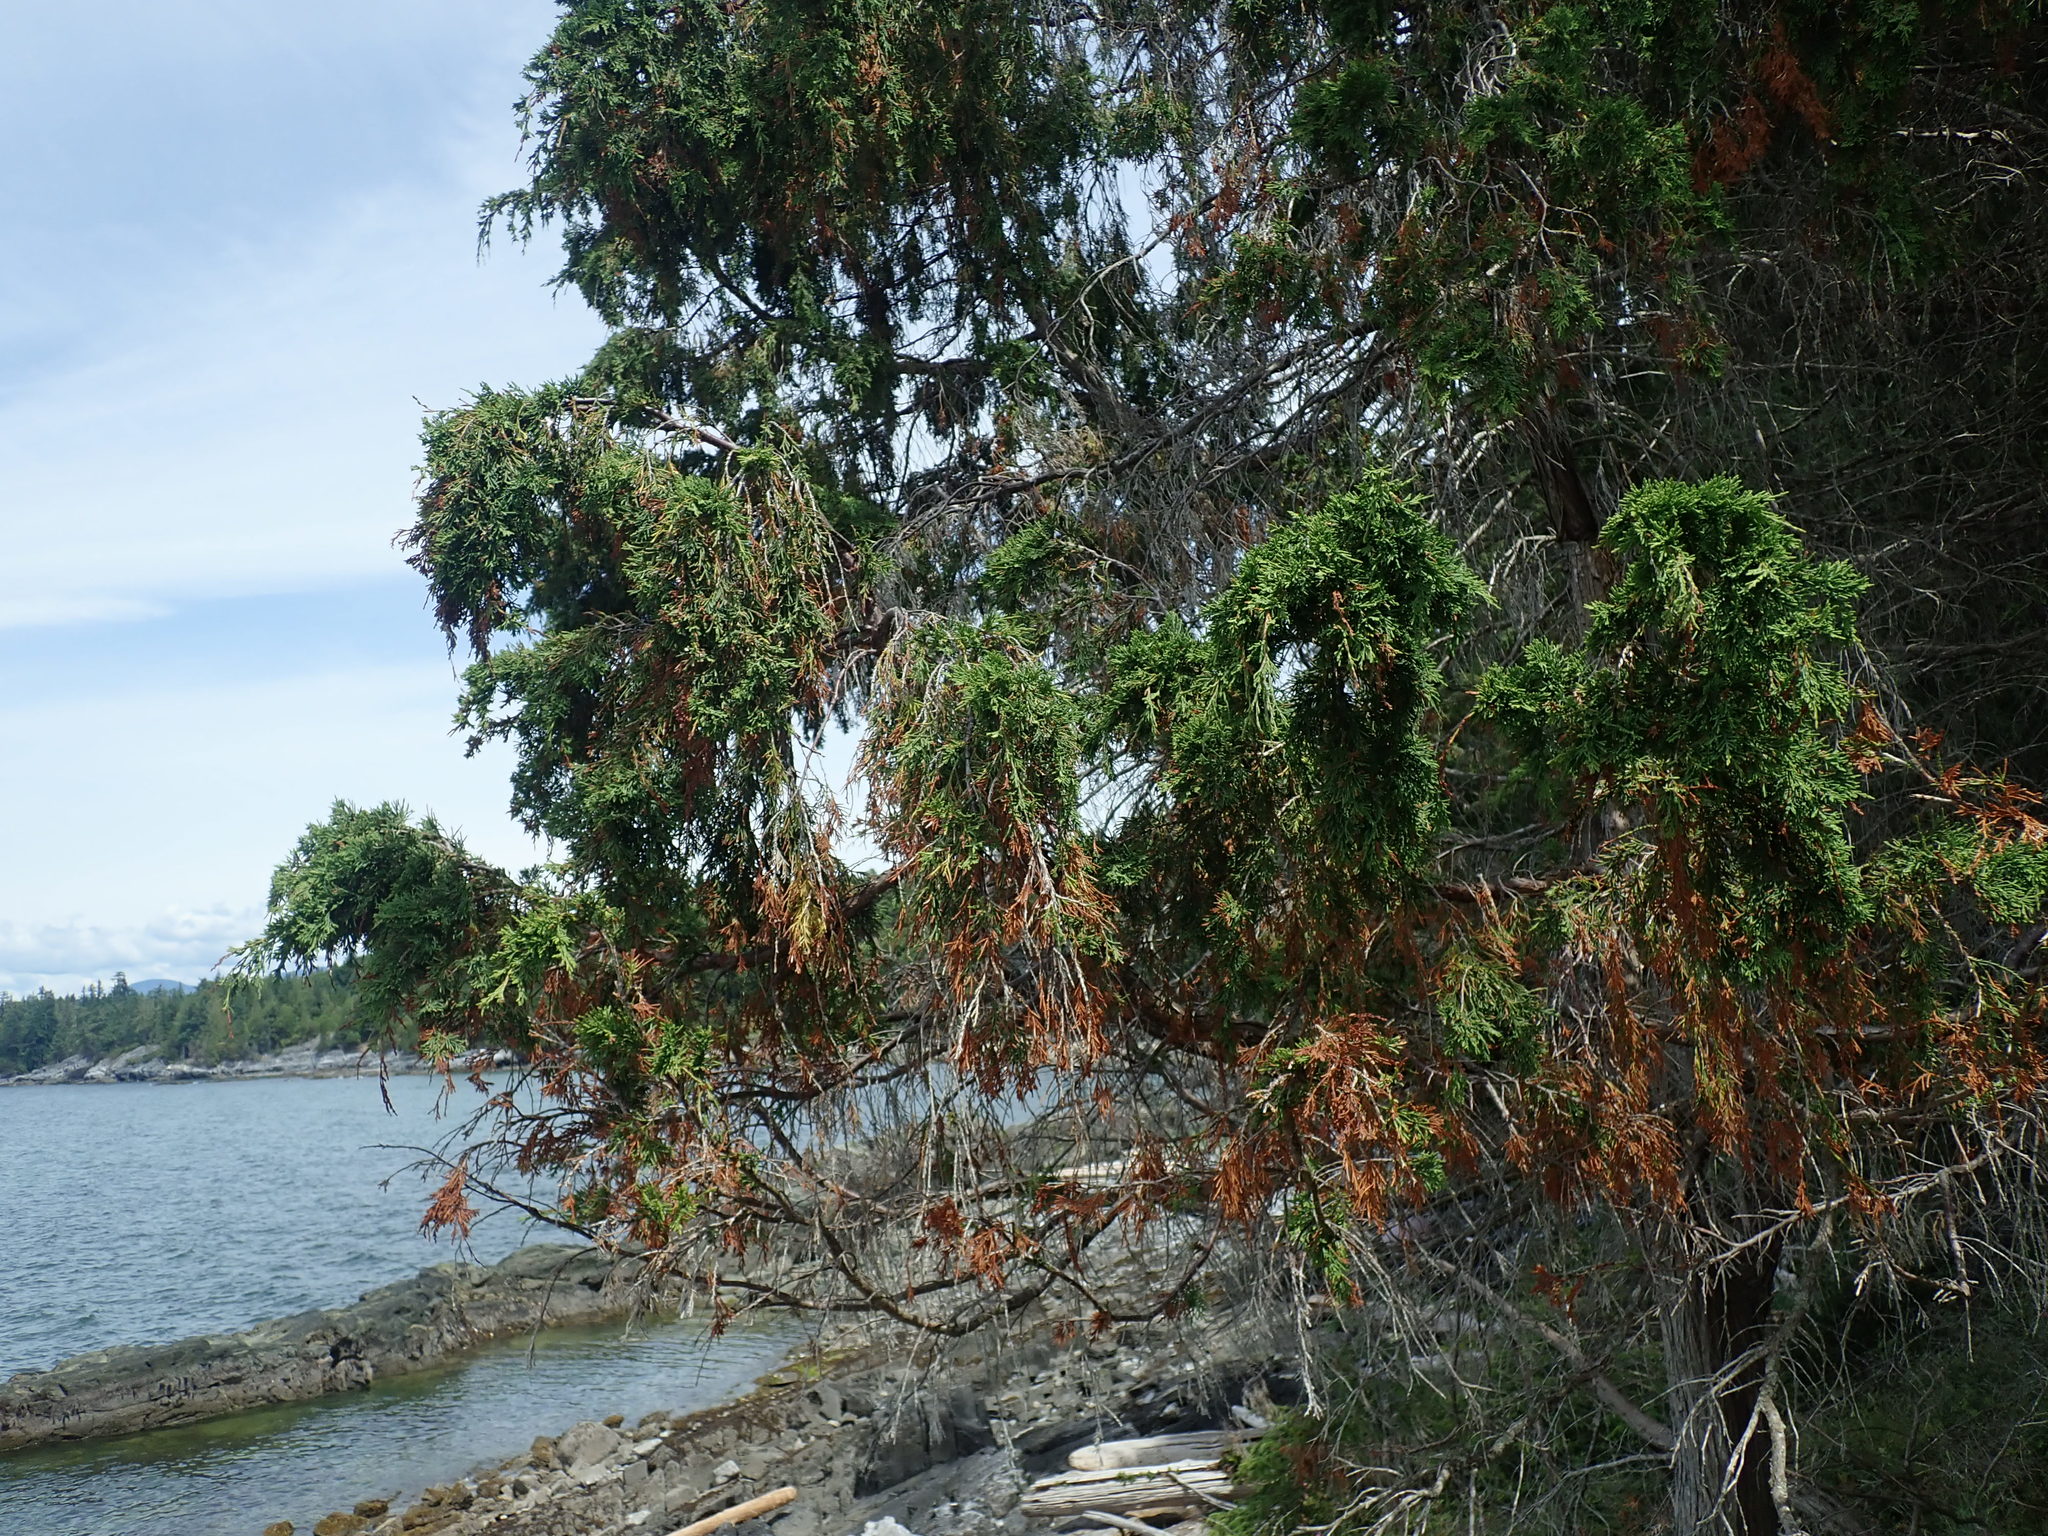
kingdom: Plantae
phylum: Tracheophyta
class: Pinopsida
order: Pinales
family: Cupressaceae
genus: Juniperus
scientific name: Juniperus scopulorum
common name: Rocky mountain juniper
